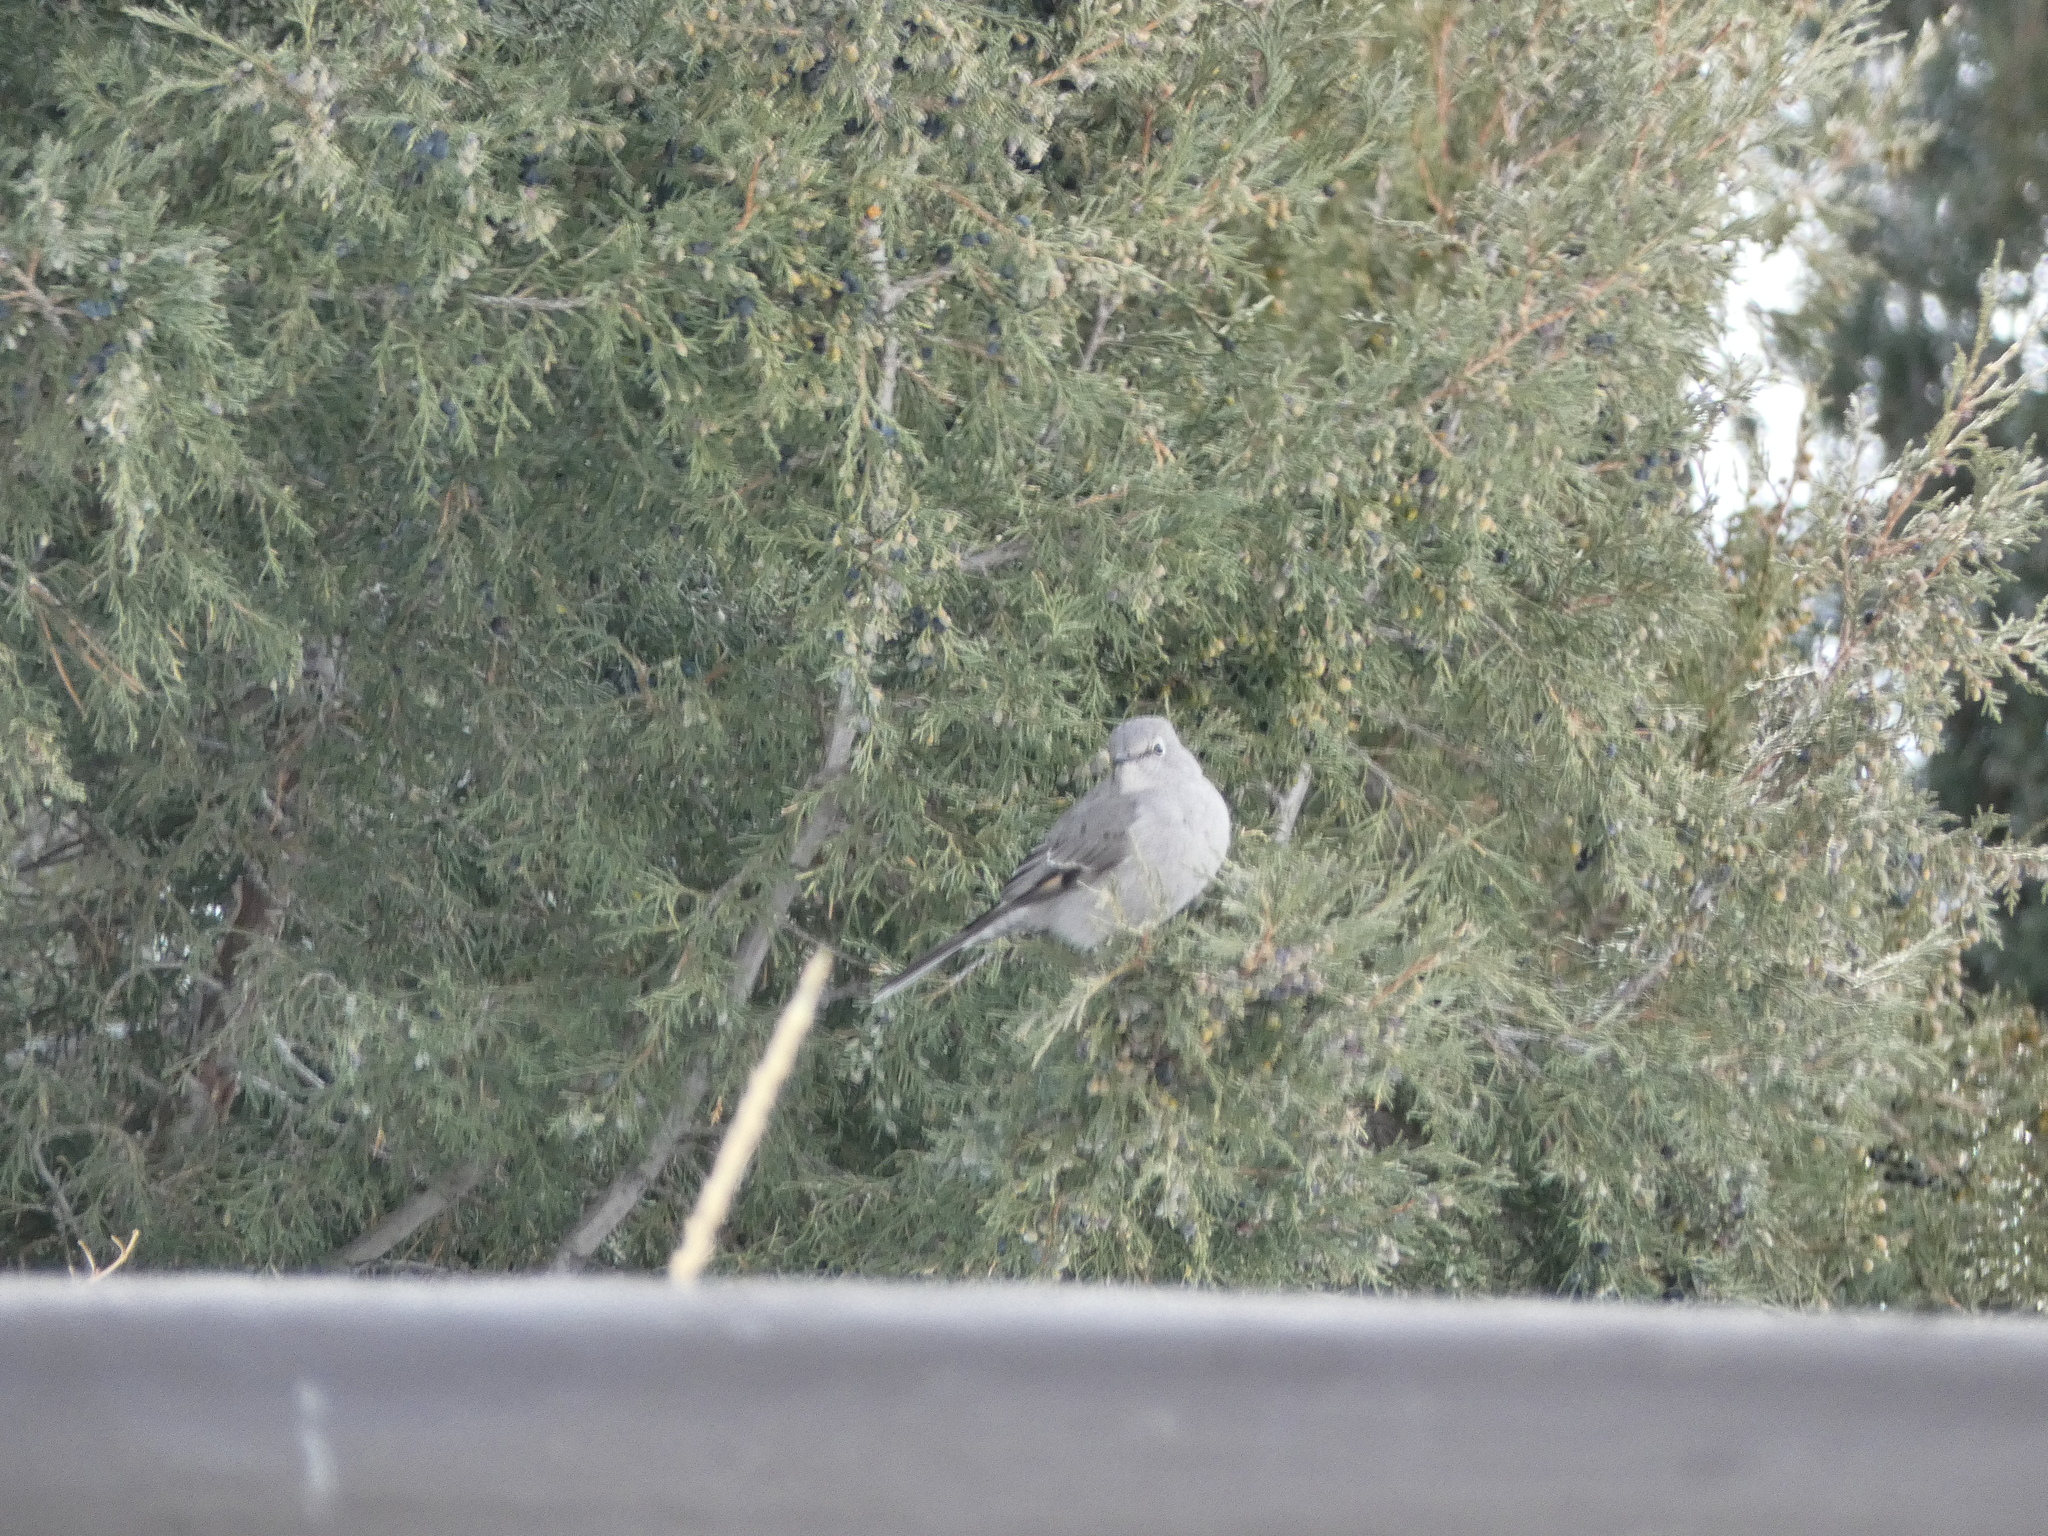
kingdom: Animalia
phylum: Chordata
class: Aves
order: Passeriformes
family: Turdidae
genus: Myadestes
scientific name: Myadestes townsendi
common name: Townsend's solitaire
